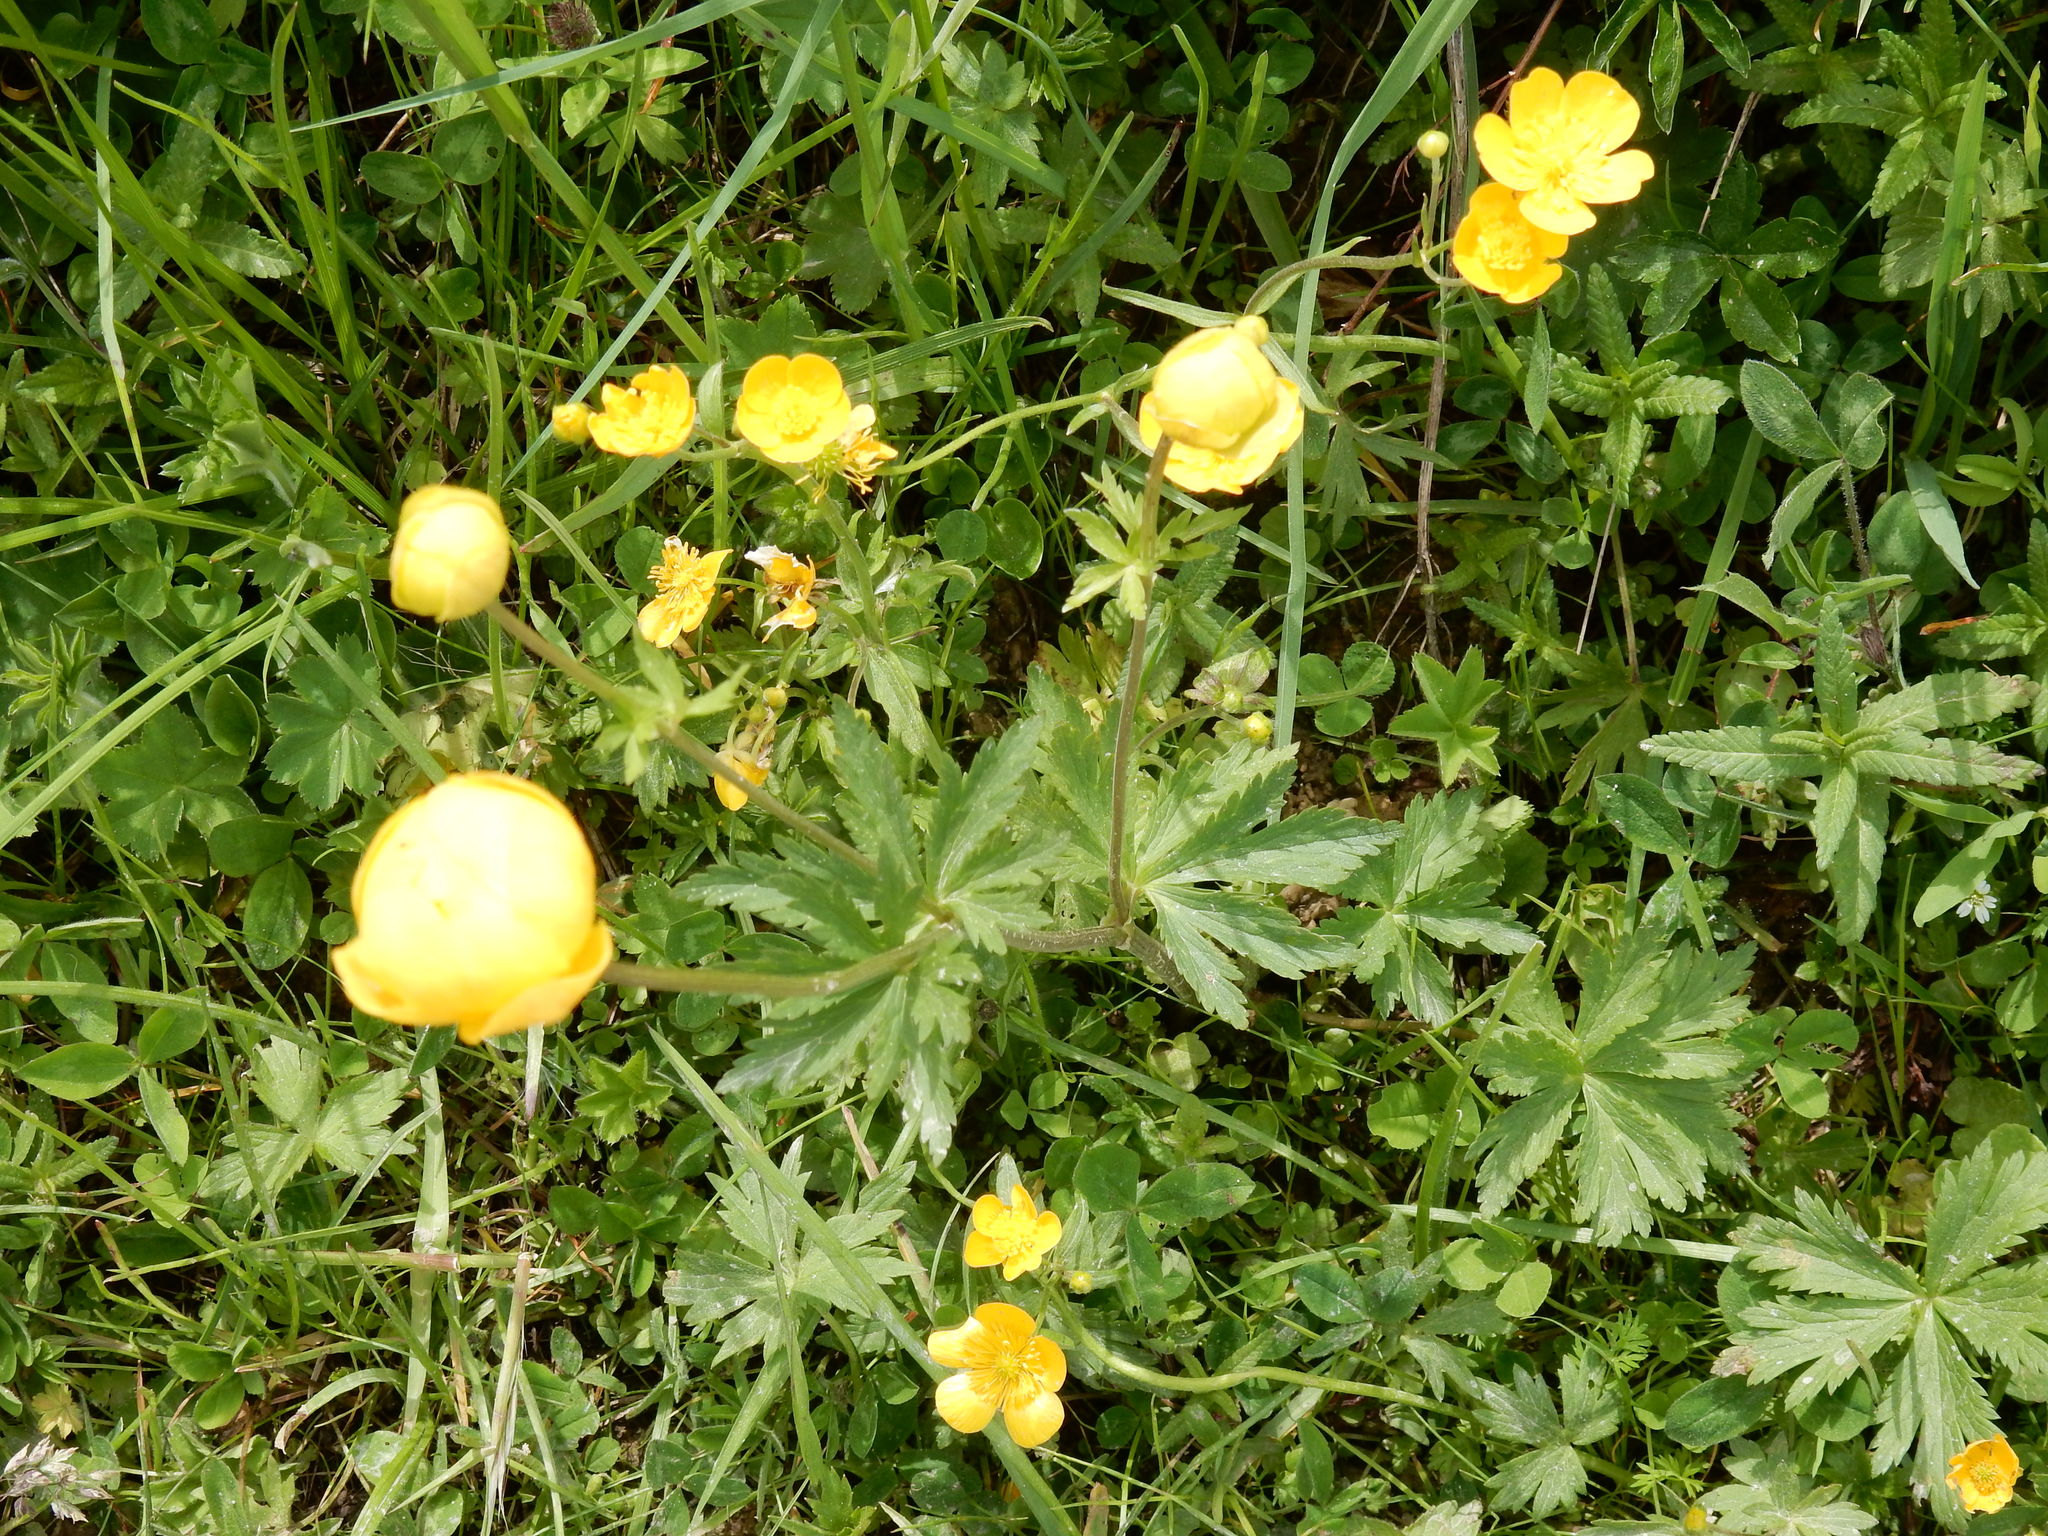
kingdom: Plantae
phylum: Tracheophyta
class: Magnoliopsida
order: Ranunculales
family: Ranunculaceae
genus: Trollius
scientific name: Trollius europaeus
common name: European globeflower
